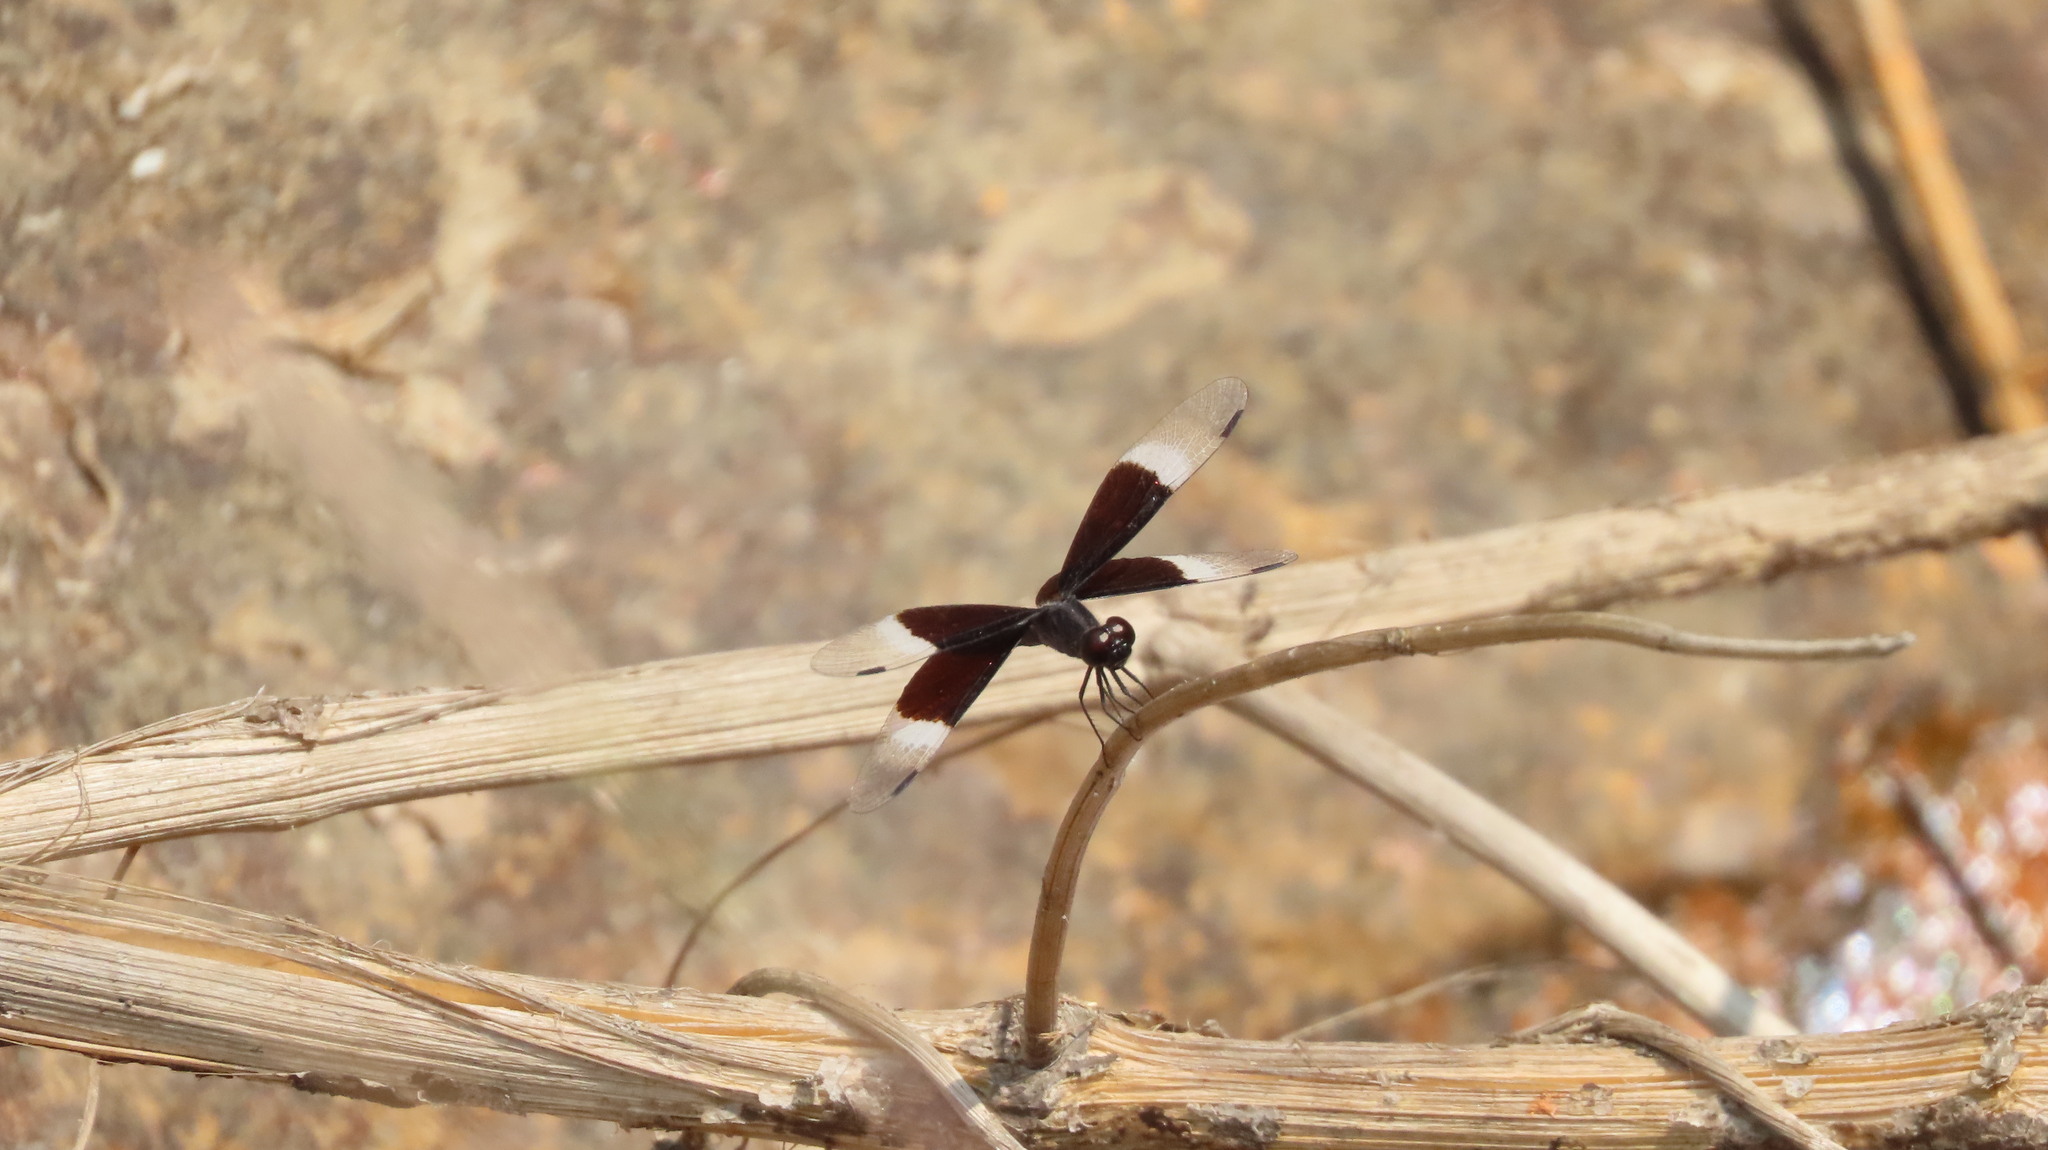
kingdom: Animalia
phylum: Arthropoda
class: Insecta
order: Odonata
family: Libellulidae
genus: Neurothemis
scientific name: Neurothemis tullia
